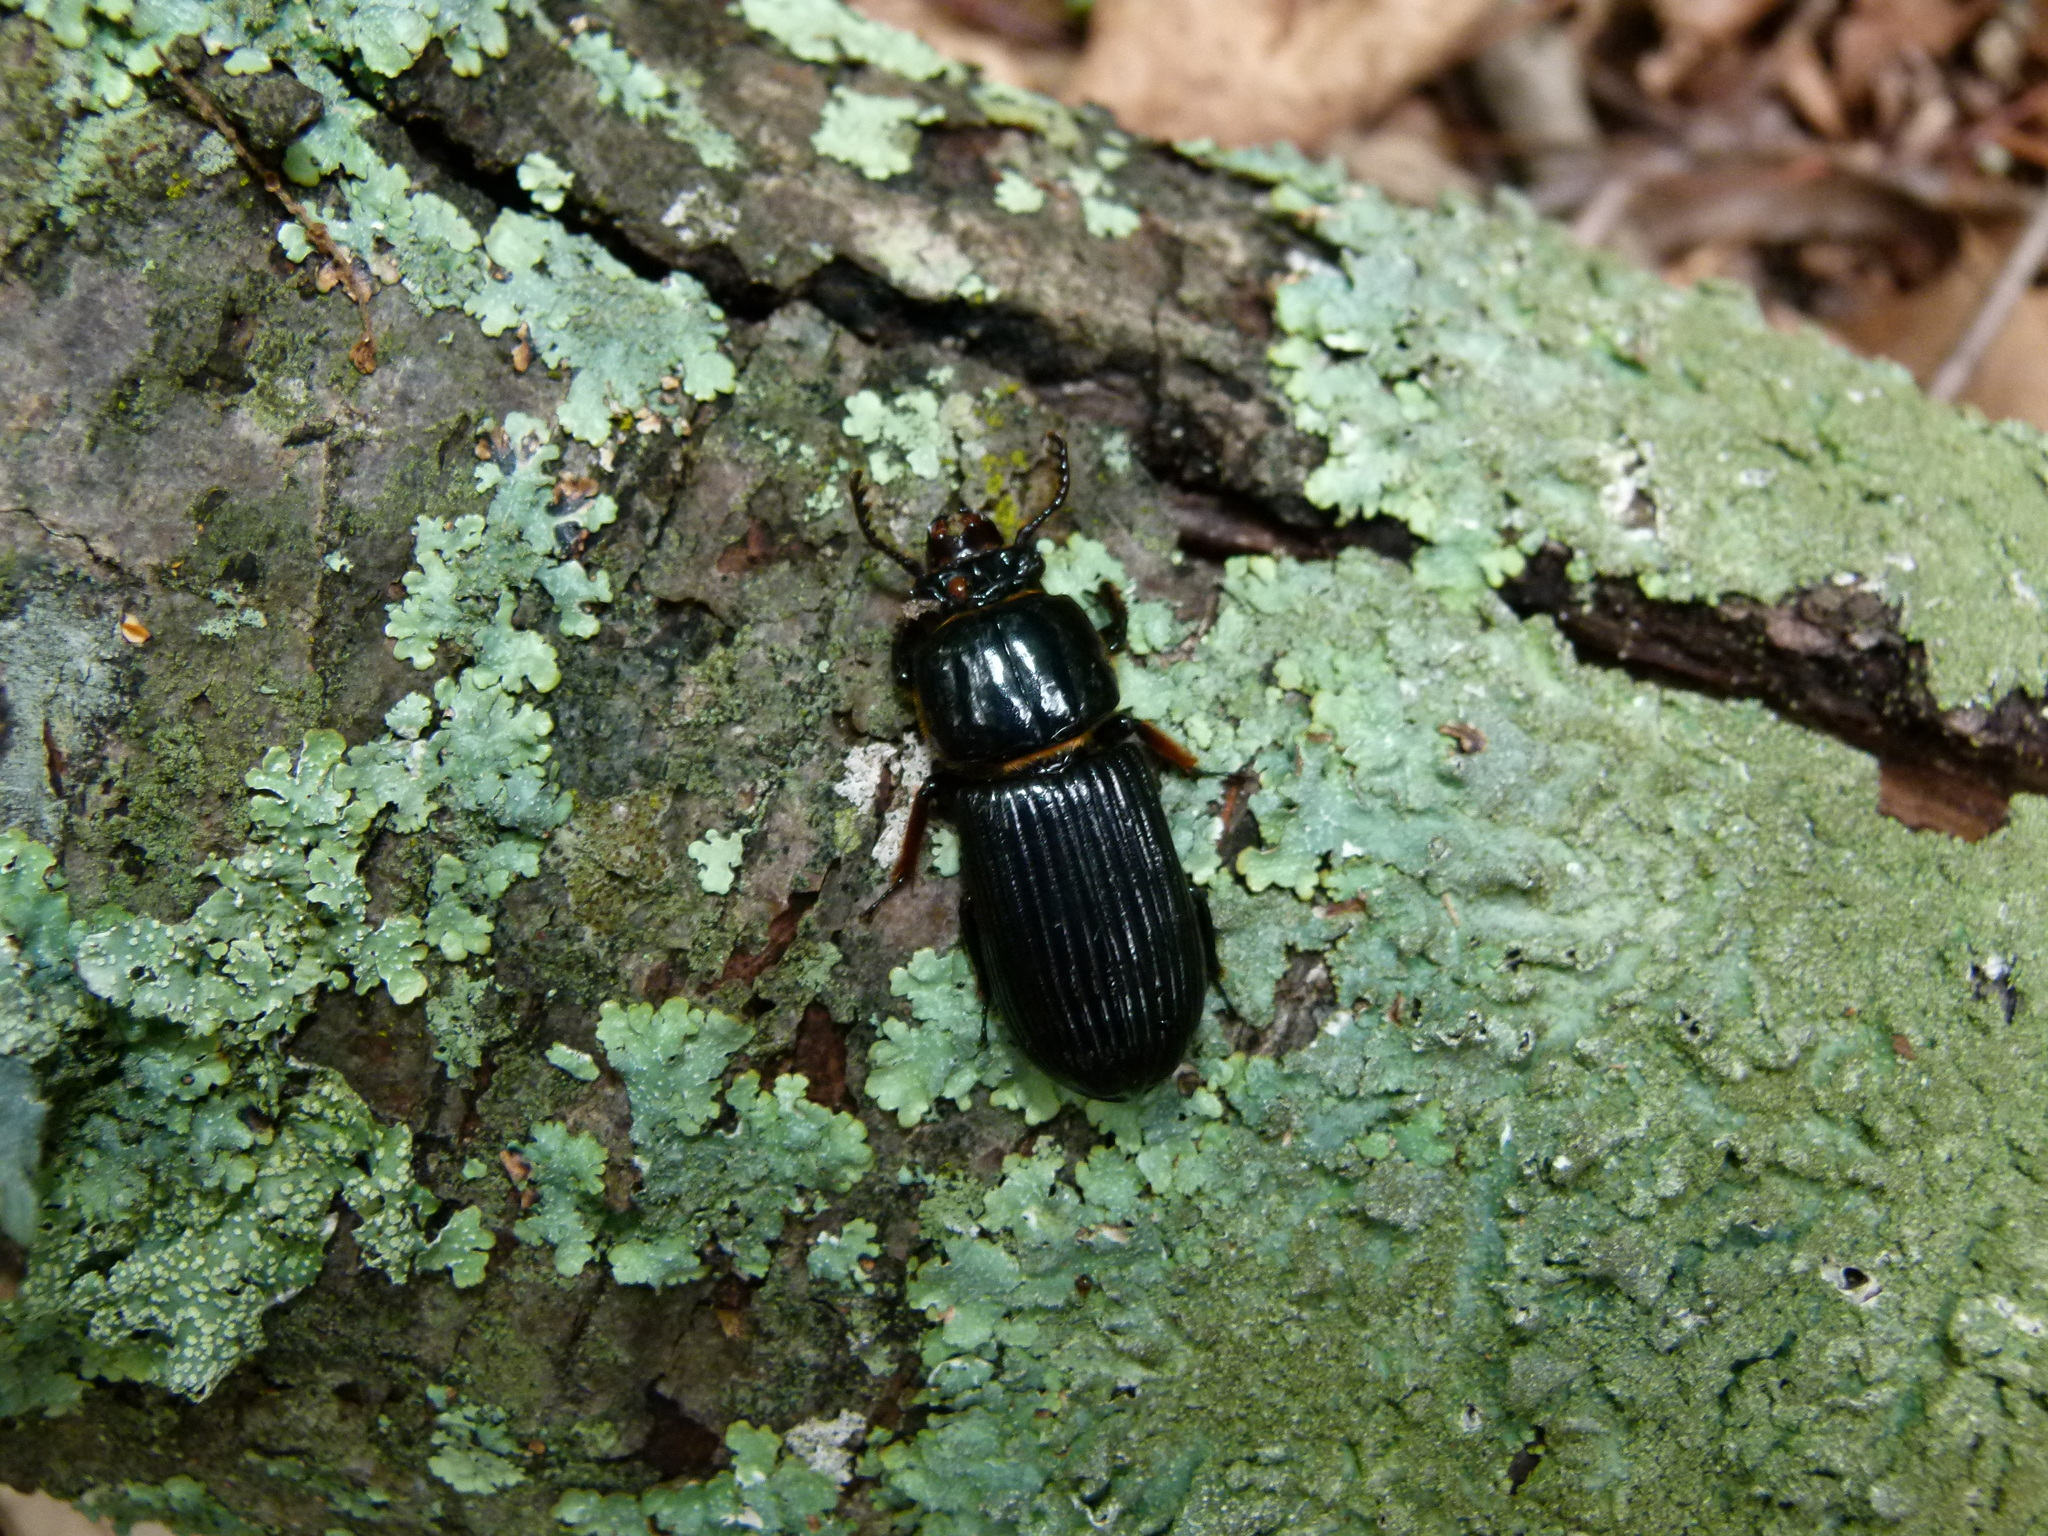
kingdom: Animalia
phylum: Arthropoda
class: Insecta
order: Coleoptera
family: Passalidae
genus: Odontotaenius
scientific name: Odontotaenius disjunctus
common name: Patent leather beetle
